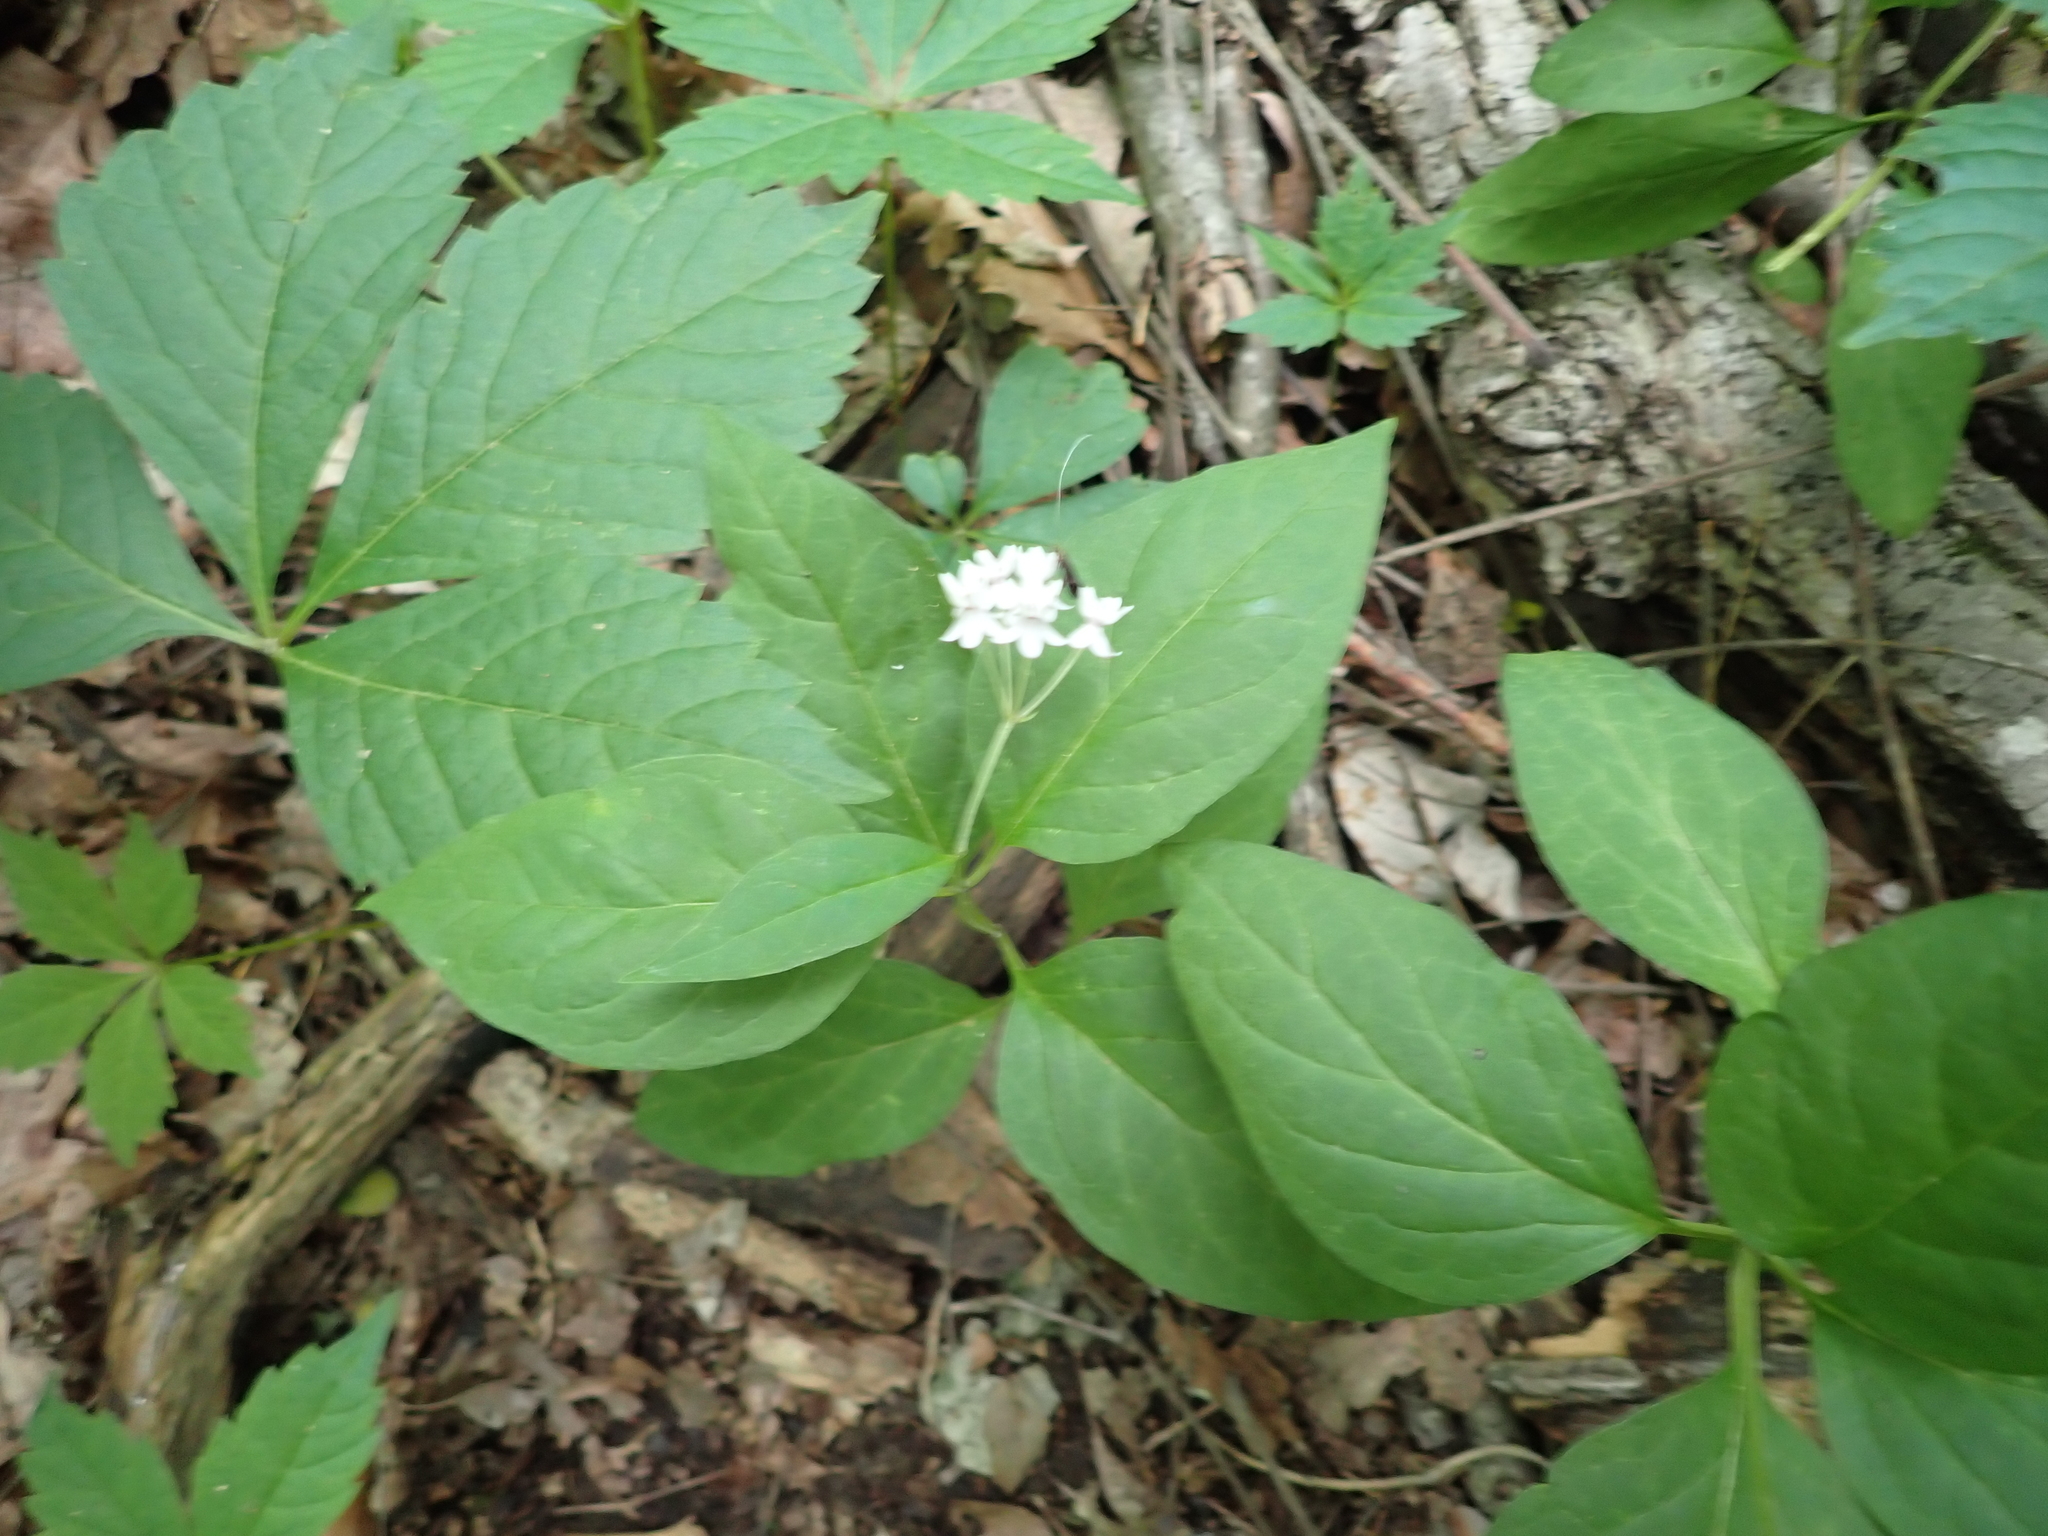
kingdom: Plantae
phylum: Tracheophyta
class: Magnoliopsida
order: Gentianales
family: Apocynaceae
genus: Asclepias
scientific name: Asclepias quadrifolia
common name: Whorled milkweed
